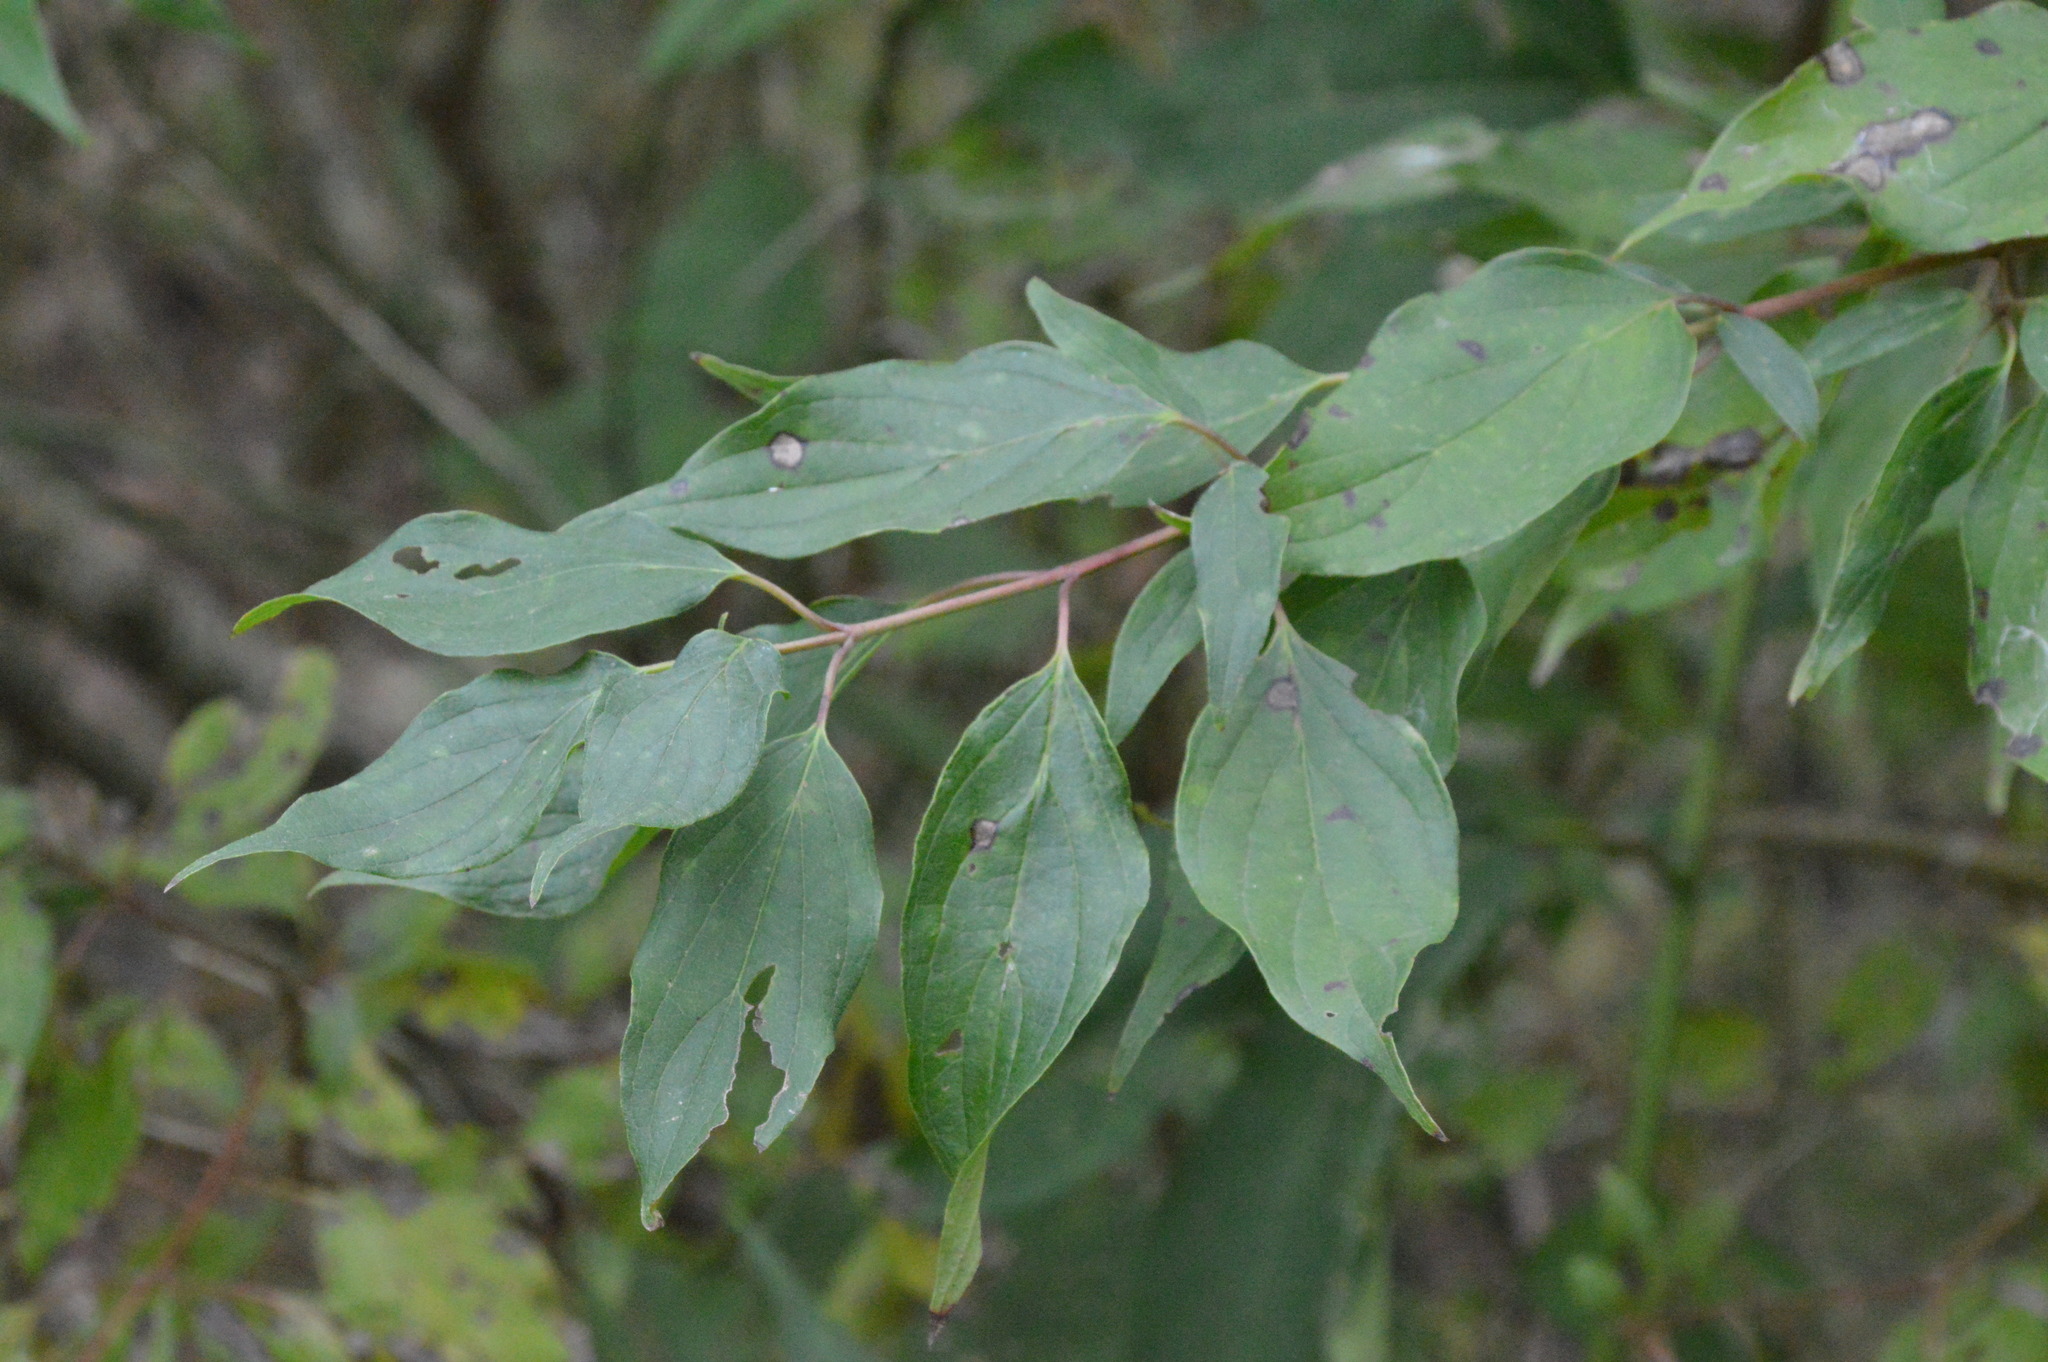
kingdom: Plantae
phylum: Tracheophyta
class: Magnoliopsida
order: Cornales
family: Cornaceae
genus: Cornus
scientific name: Cornus drummondii
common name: Rough-leaf dogwood
